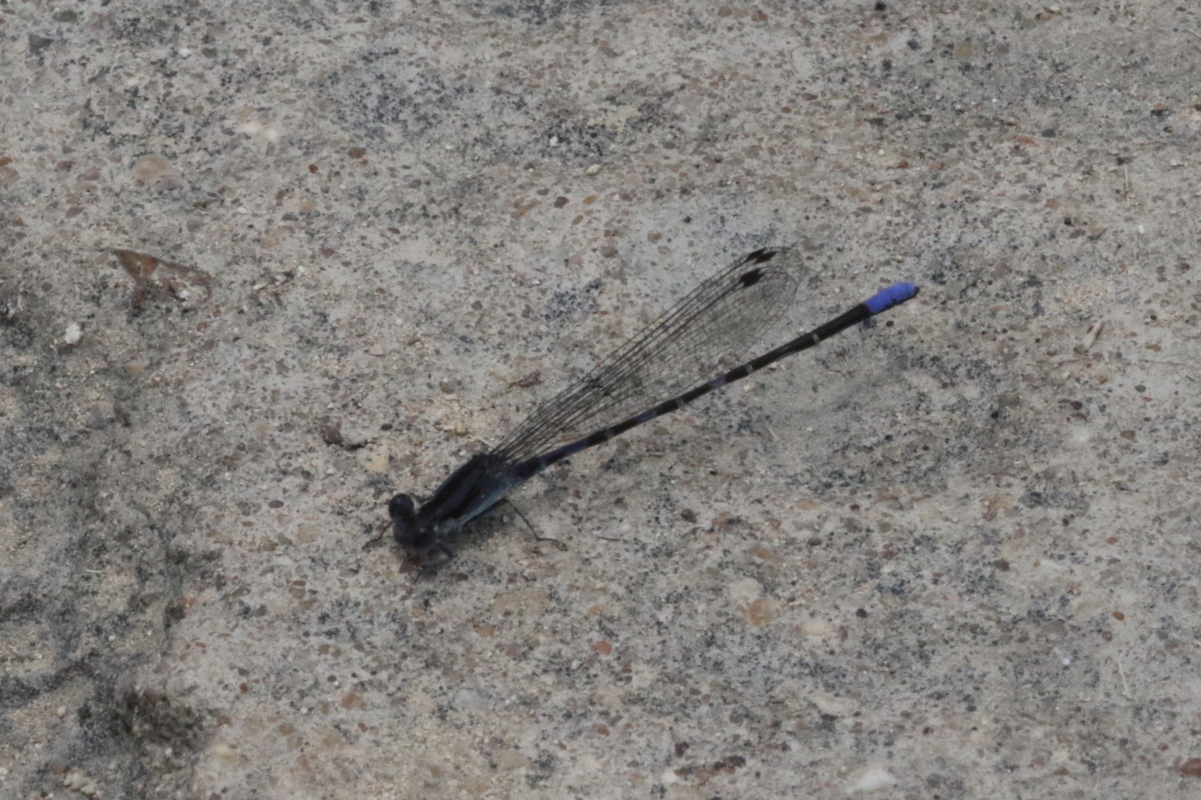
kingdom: Animalia
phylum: Arthropoda
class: Insecta
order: Odonata
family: Coenagrionidae
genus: Argia
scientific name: Argia immunda
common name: Kiowa dancer
